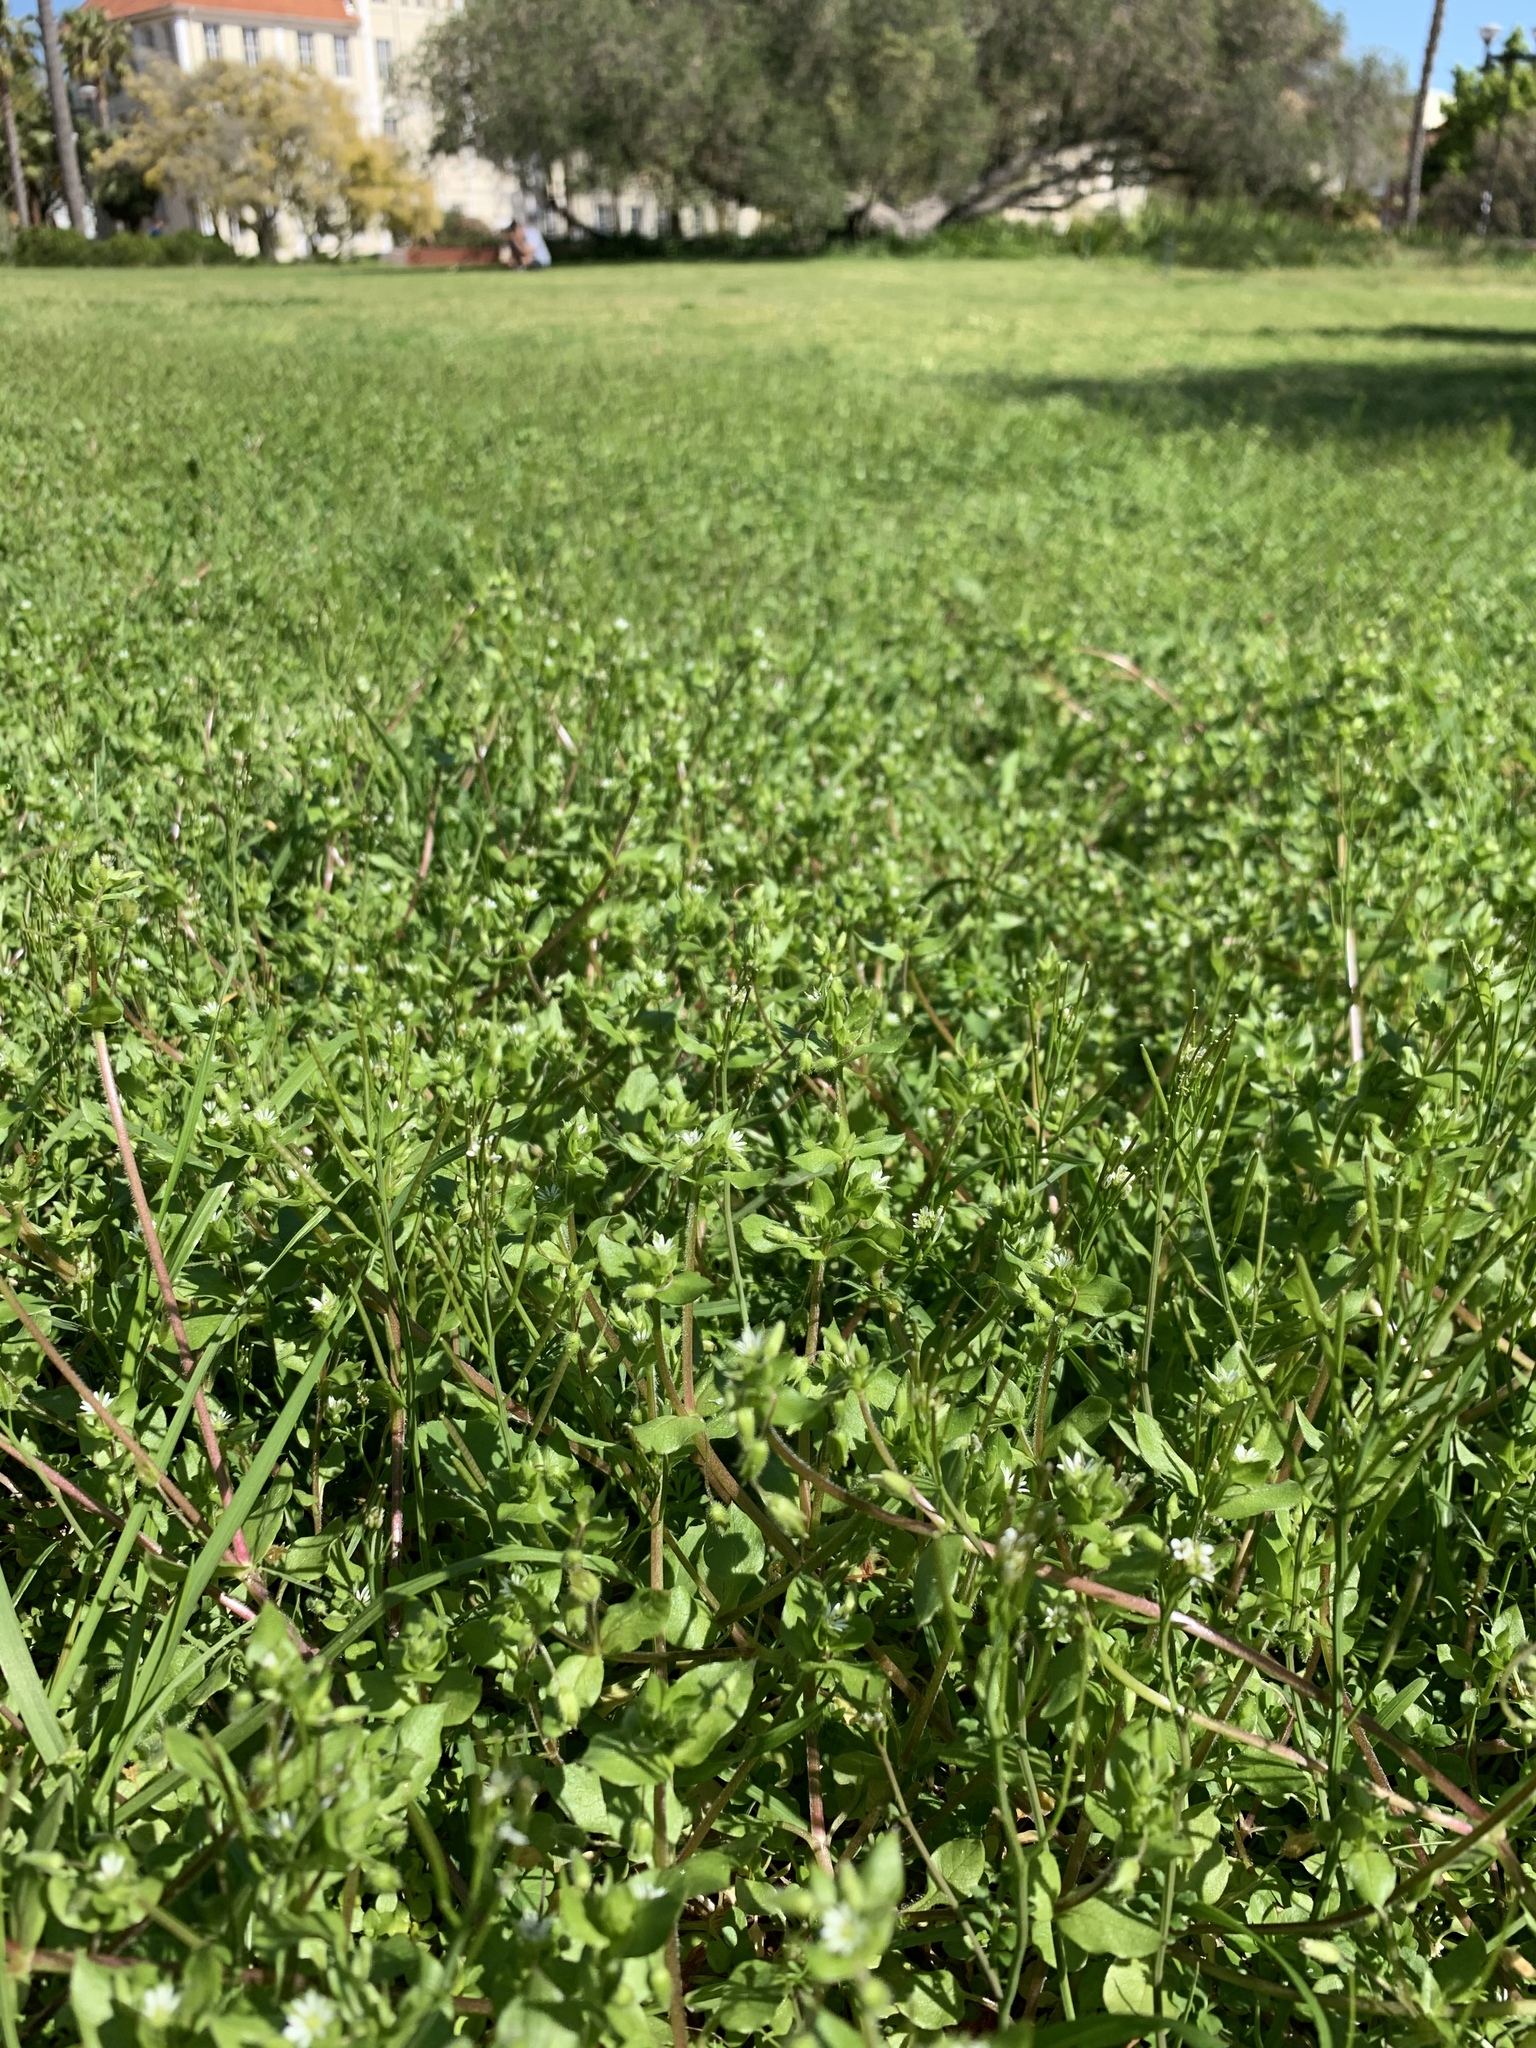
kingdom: Plantae
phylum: Tracheophyta
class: Magnoliopsida
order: Caryophyllales
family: Caryophyllaceae
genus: Stellaria
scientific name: Stellaria media
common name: Common chickweed
